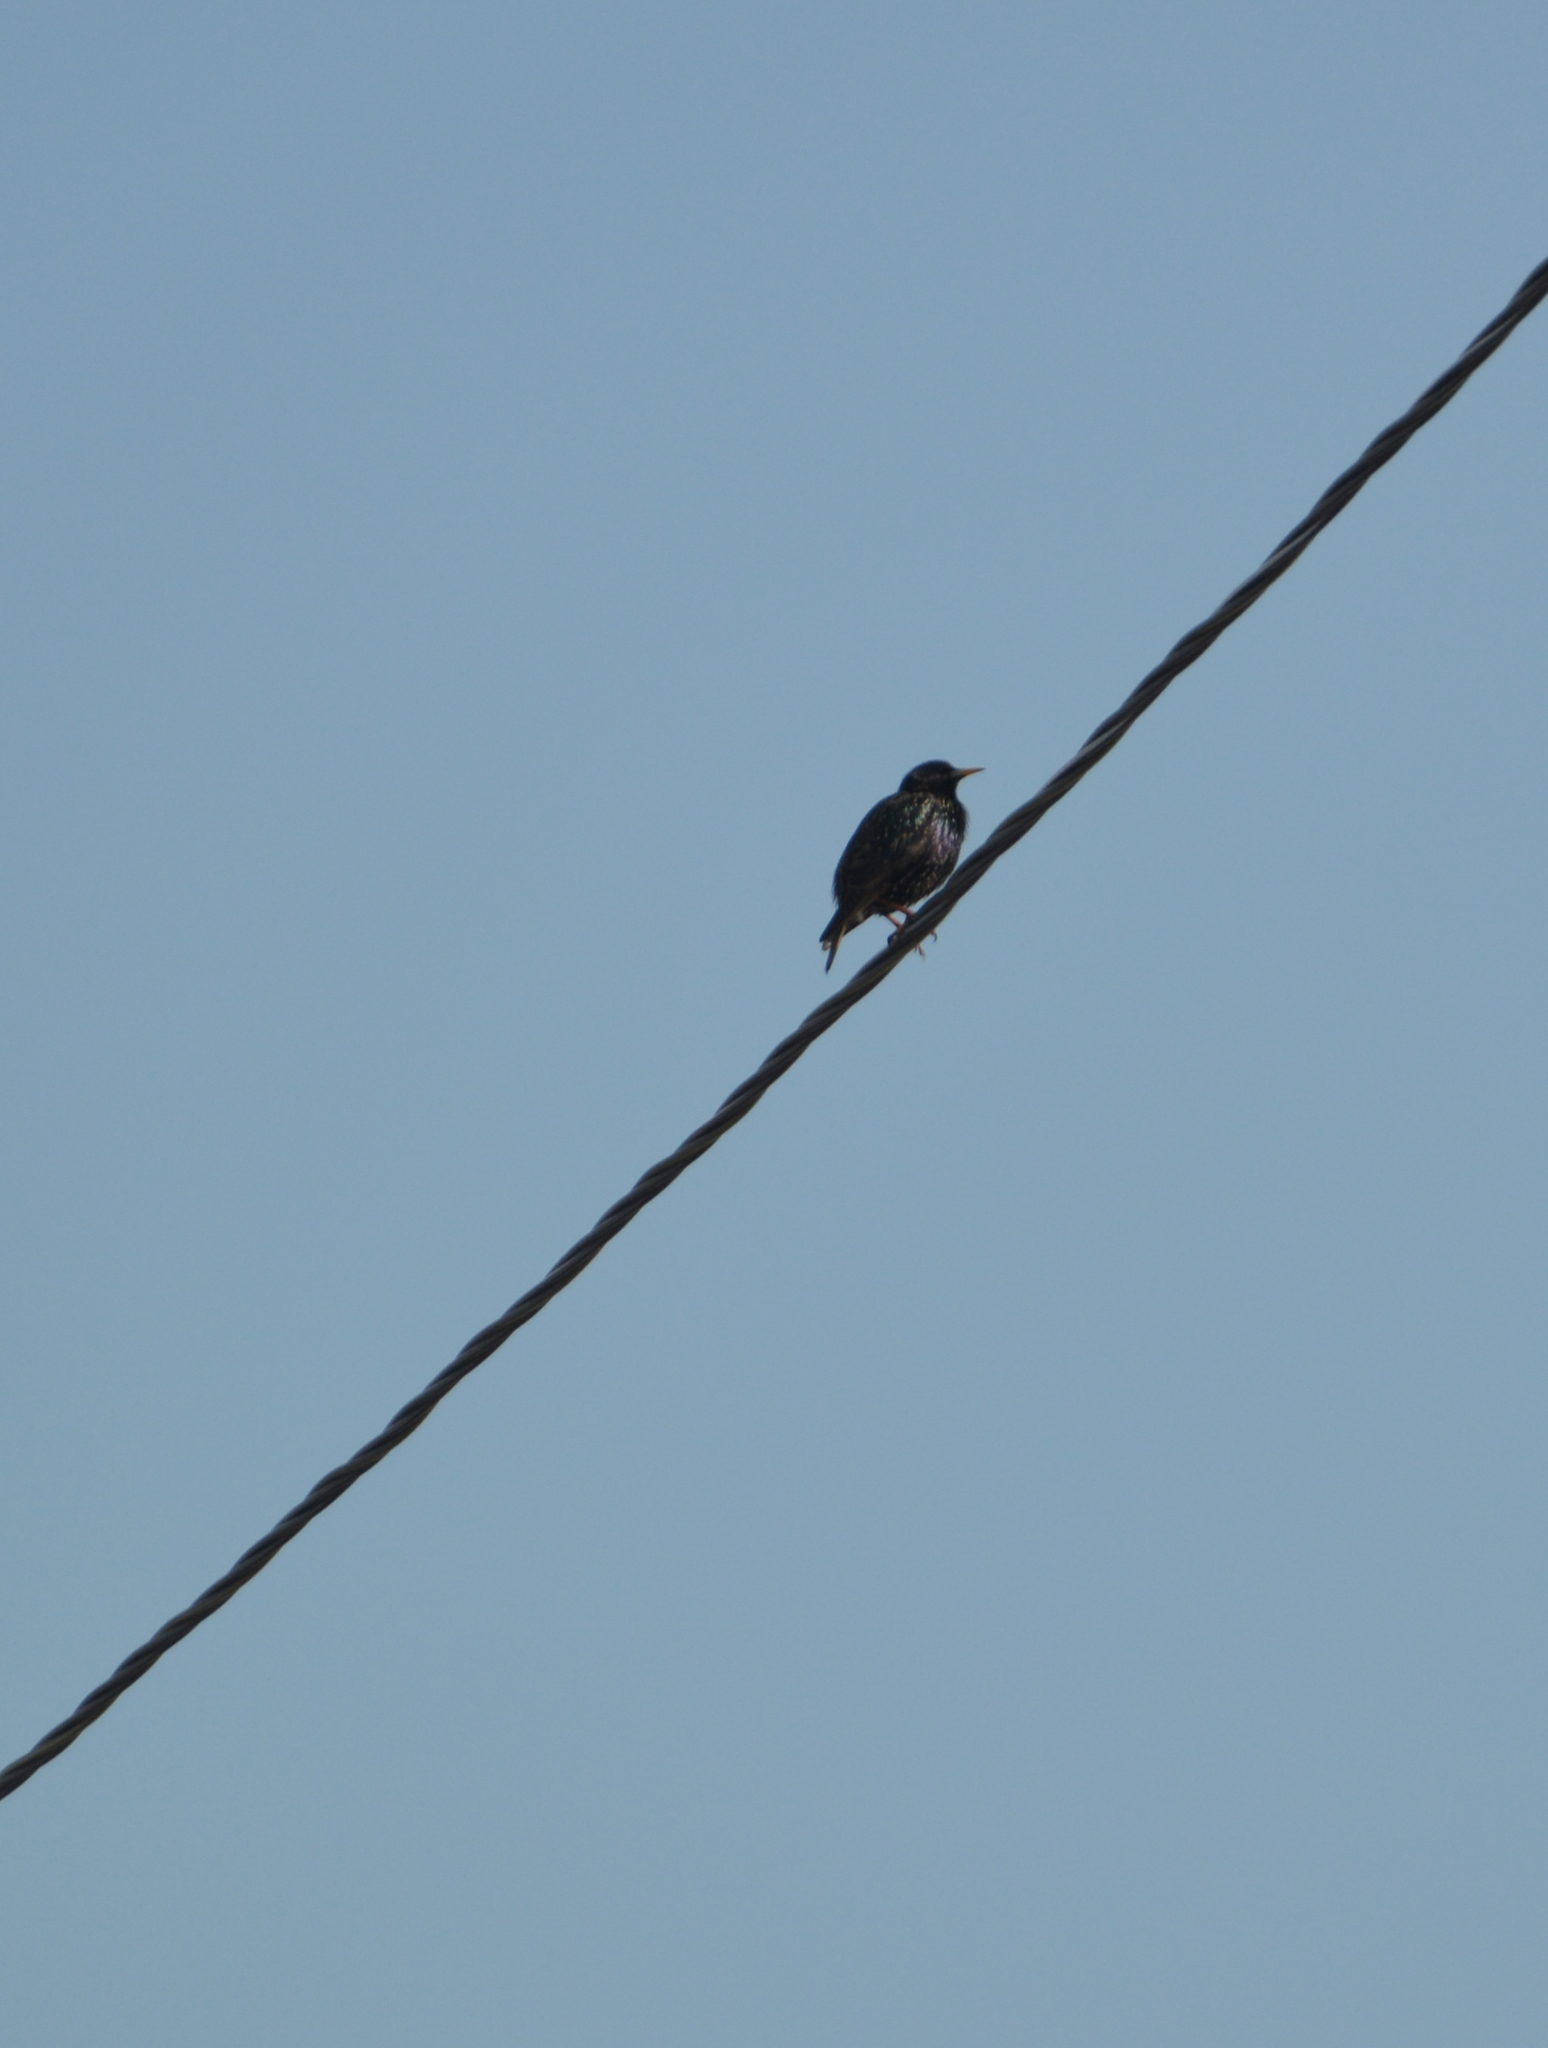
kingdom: Animalia
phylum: Chordata
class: Aves
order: Passeriformes
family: Sturnidae
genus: Sturnus
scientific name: Sturnus vulgaris
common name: Common starling
